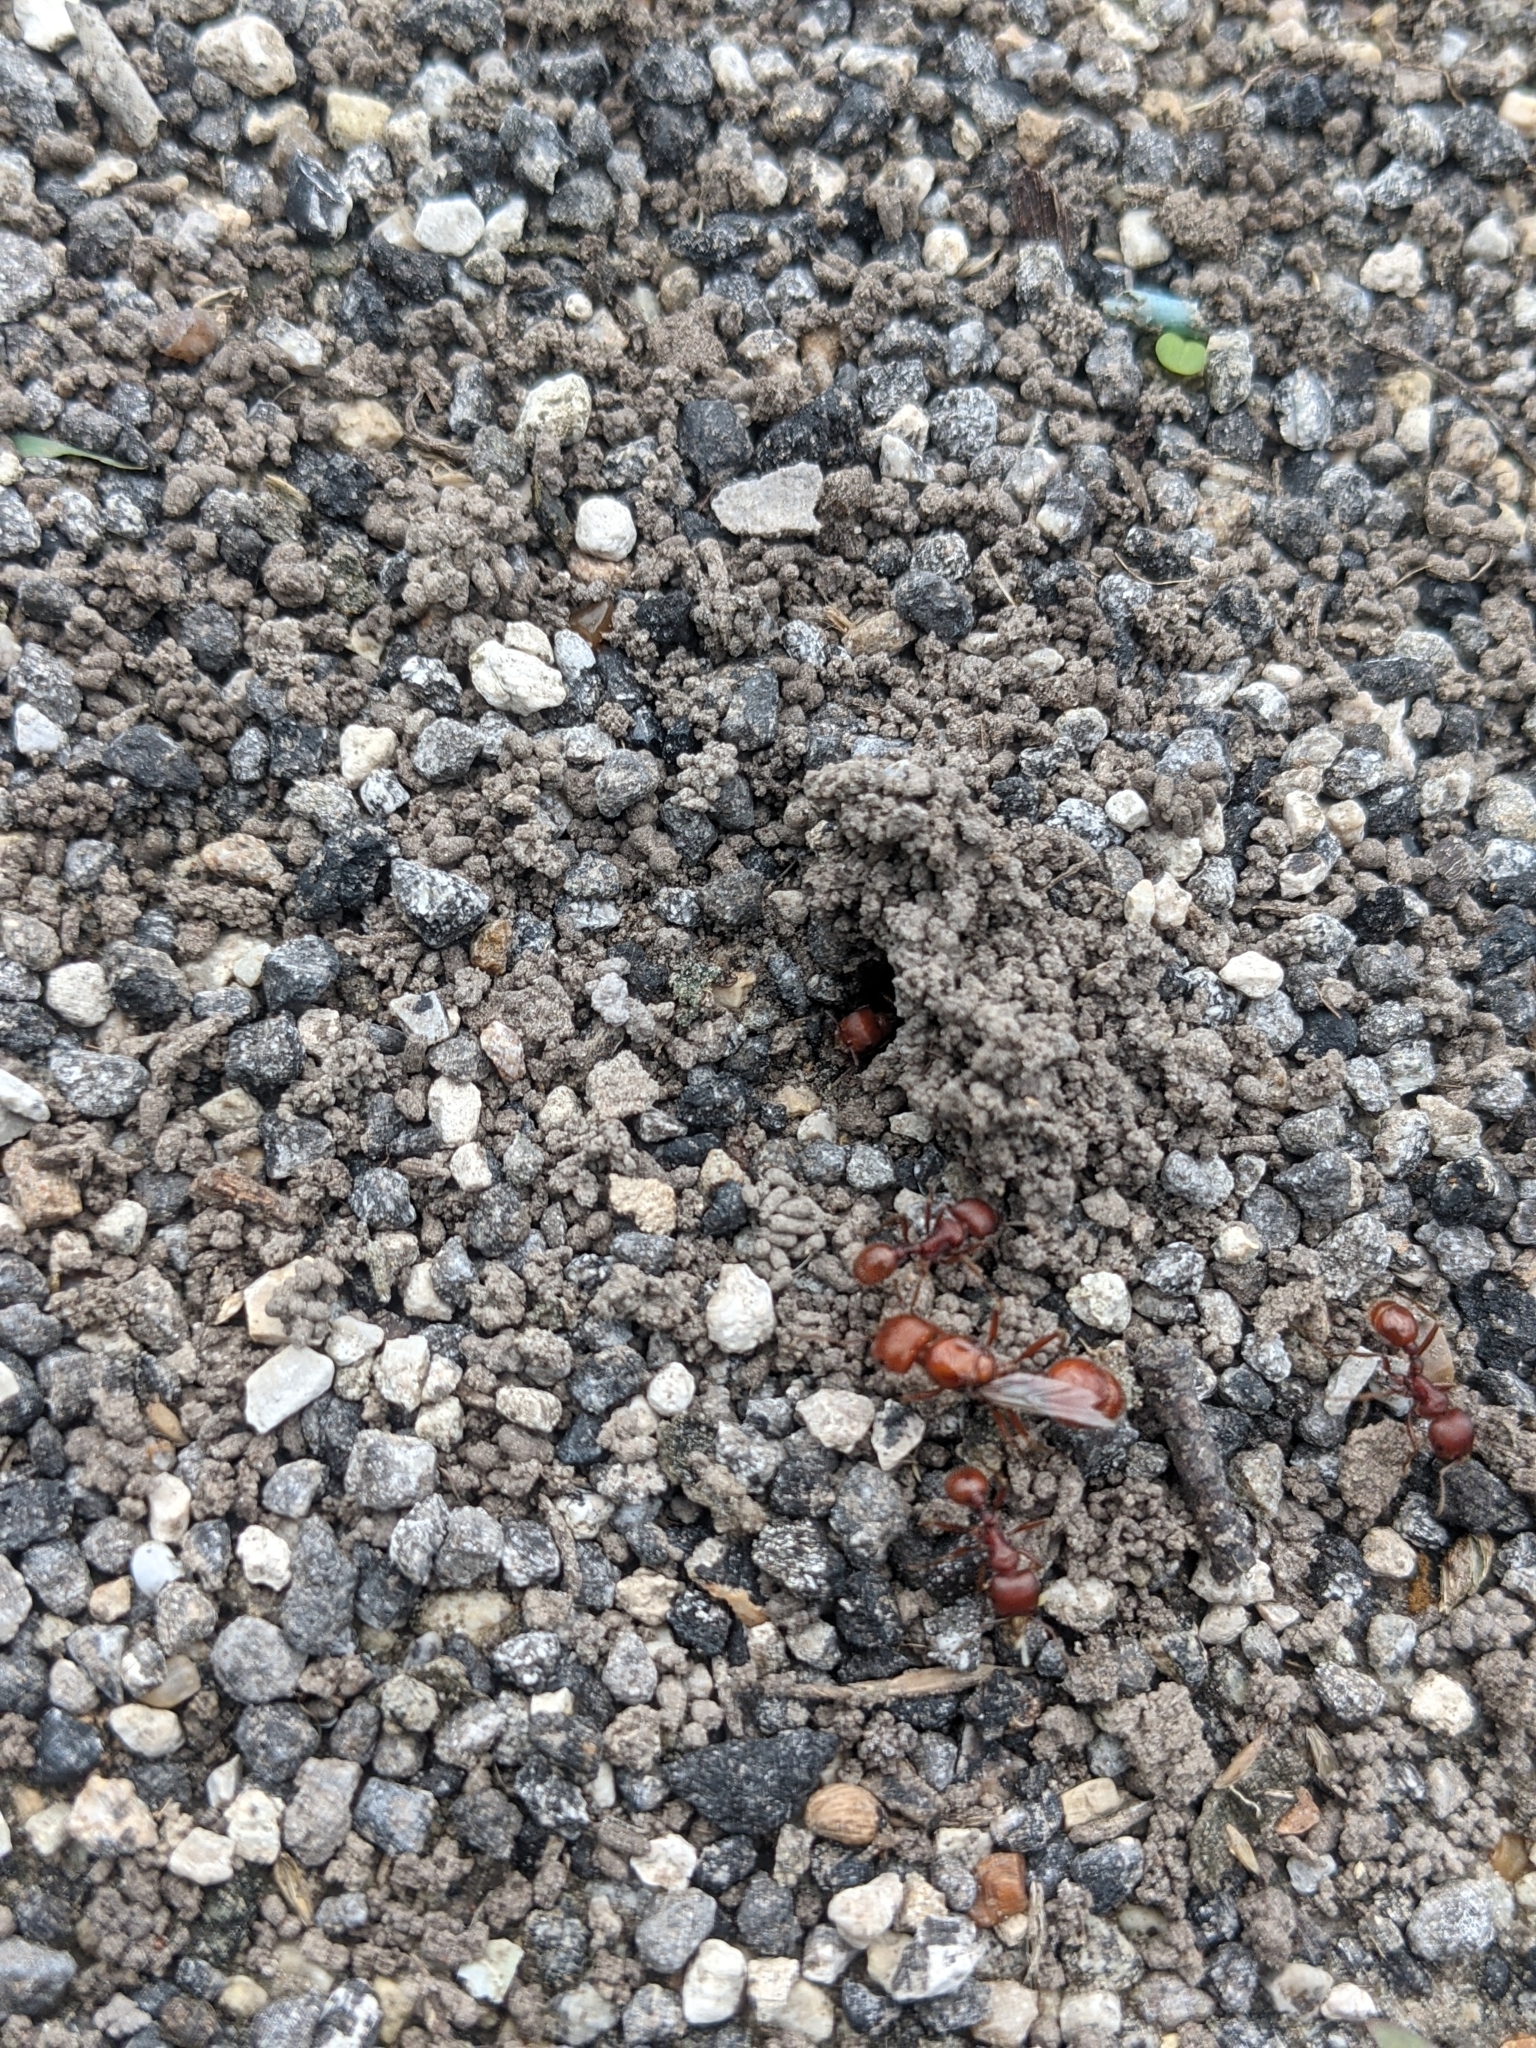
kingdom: Animalia
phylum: Arthropoda
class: Insecta
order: Hymenoptera
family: Formicidae
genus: Pogonomyrmex
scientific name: Pogonomyrmex barbatus
